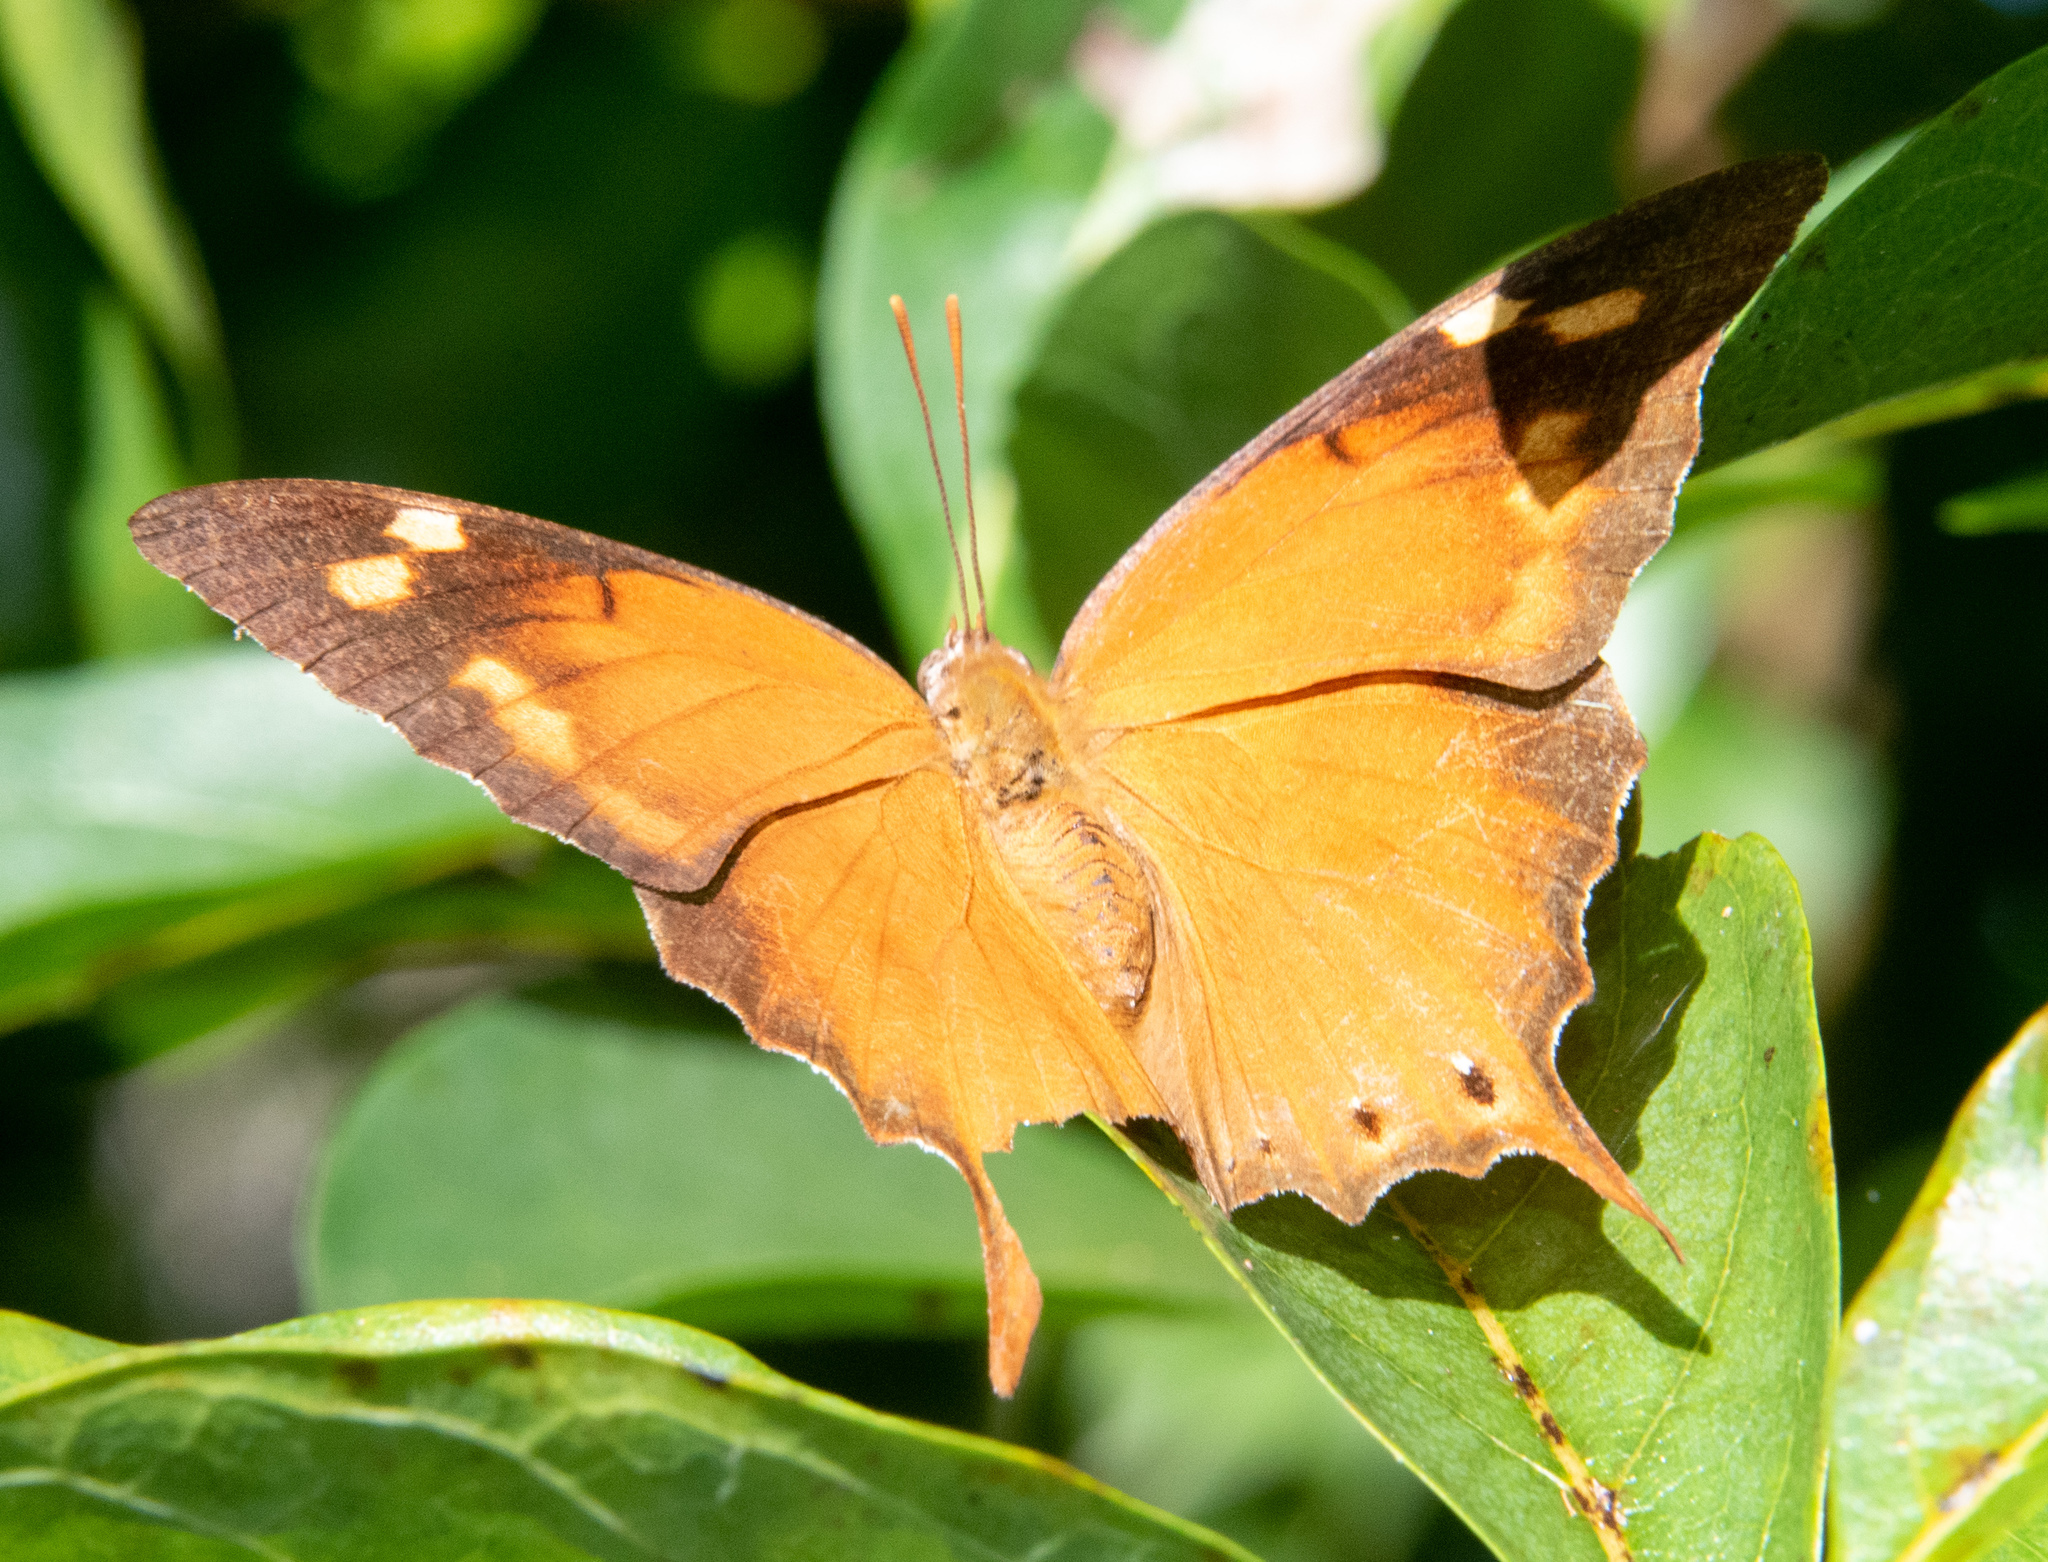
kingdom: Animalia
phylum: Arthropoda
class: Insecta
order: Lepidoptera
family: Nymphalidae
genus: Memphis
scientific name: Memphis
